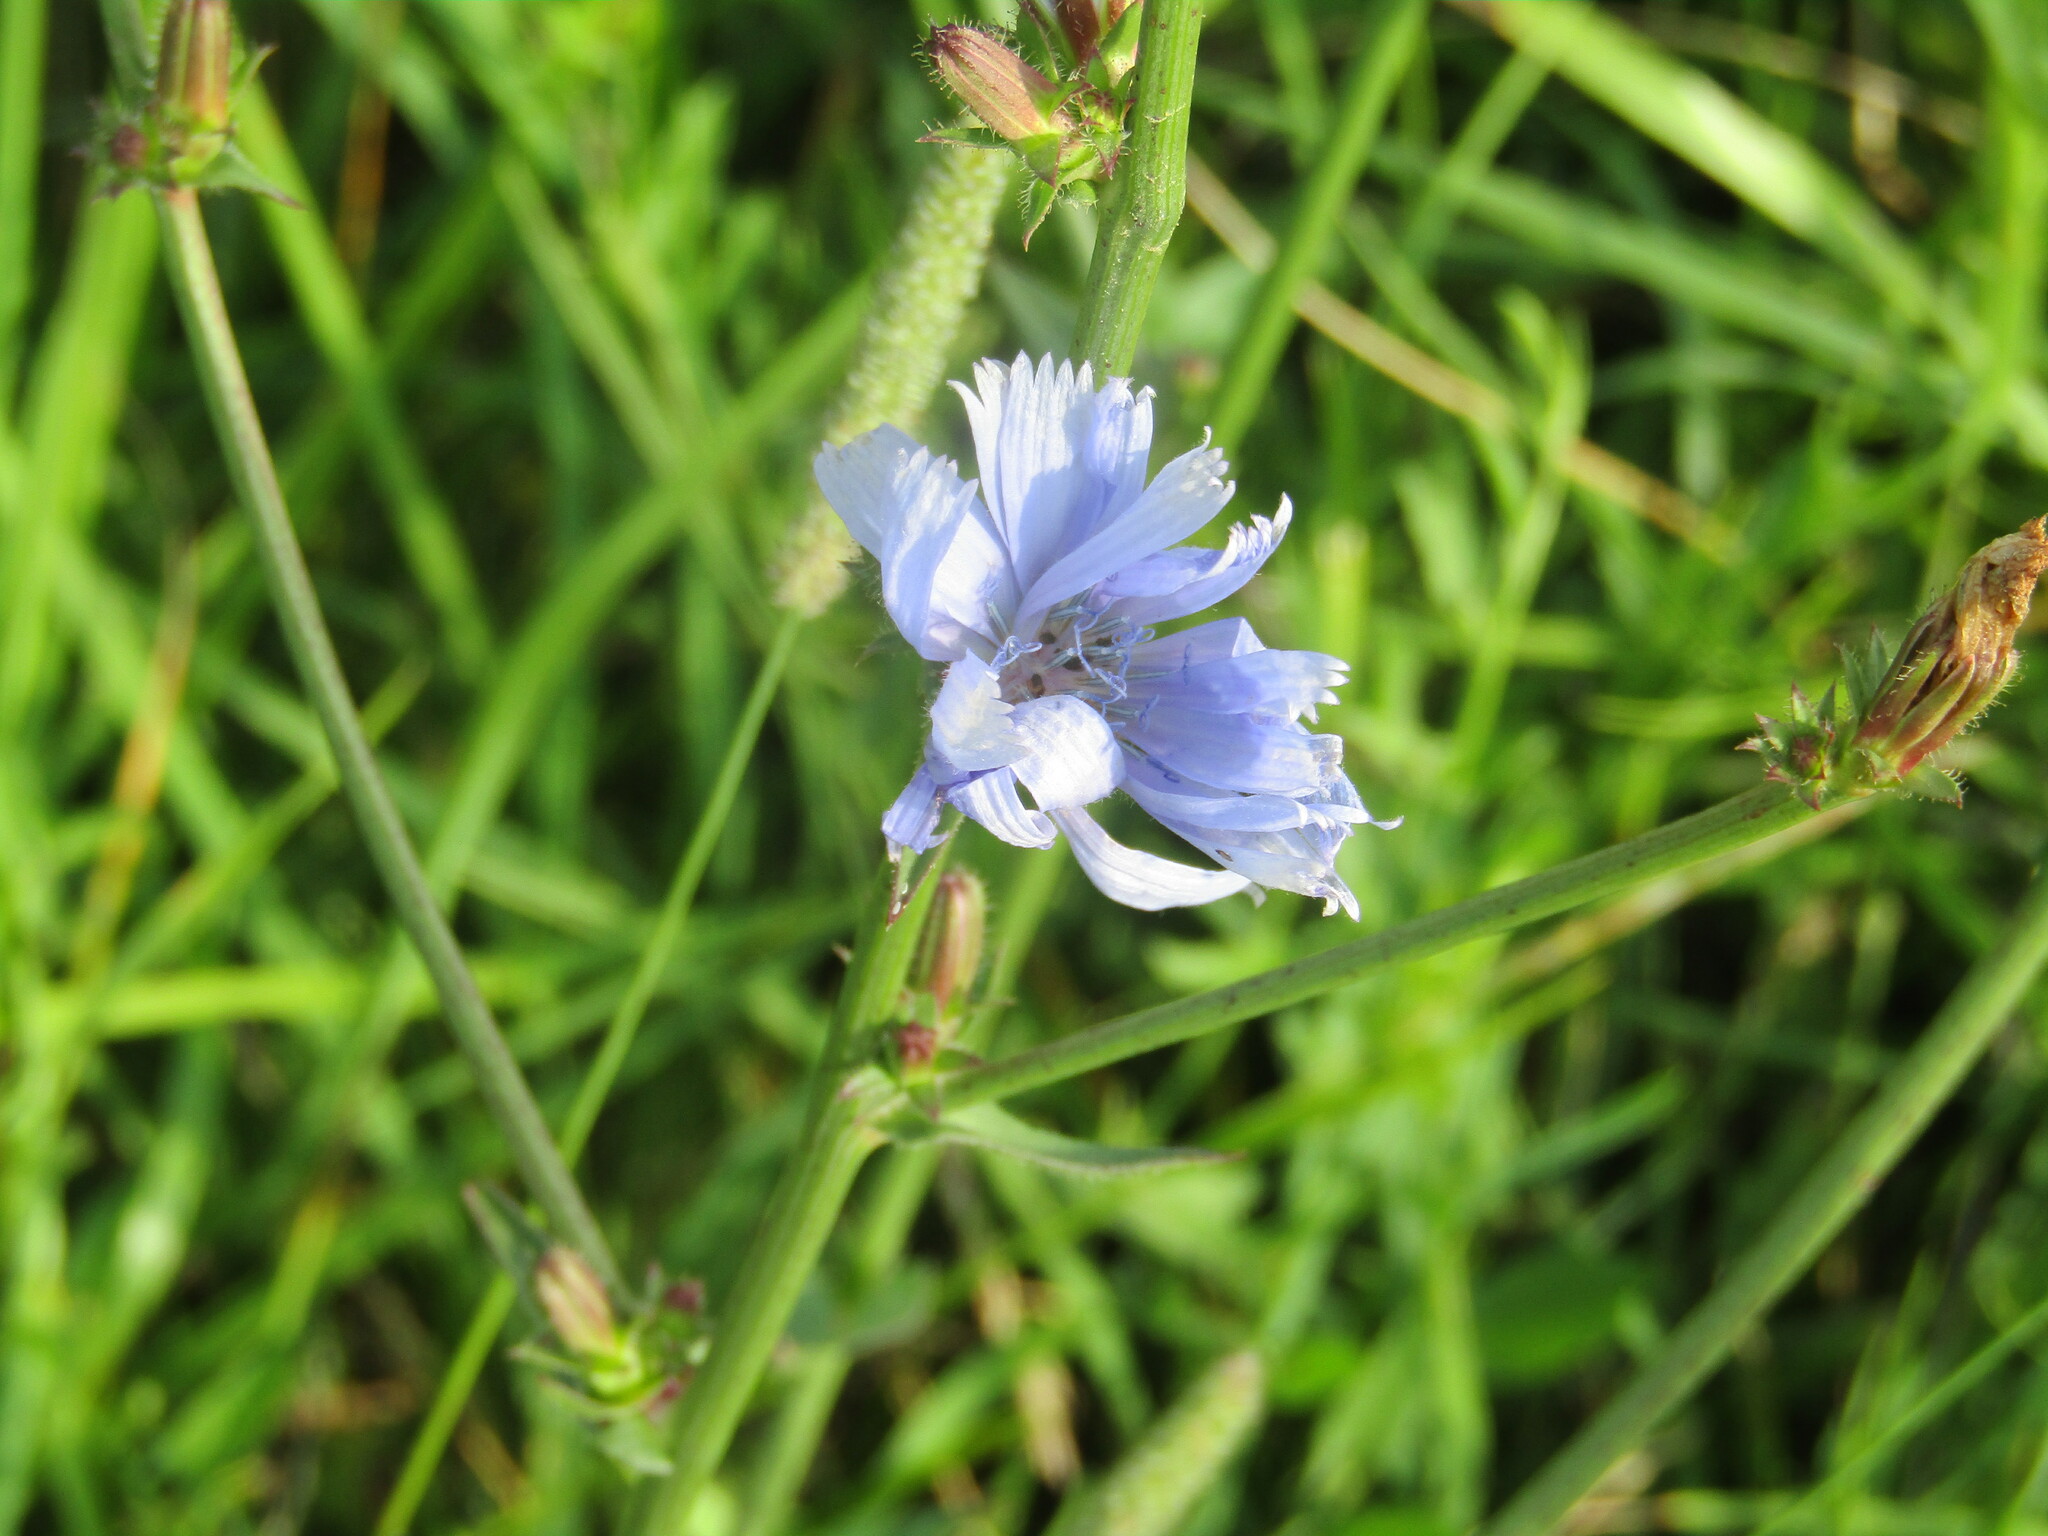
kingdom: Plantae
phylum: Tracheophyta
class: Magnoliopsida
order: Asterales
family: Asteraceae
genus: Cichorium
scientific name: Cichorium intybus
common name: Chicory
